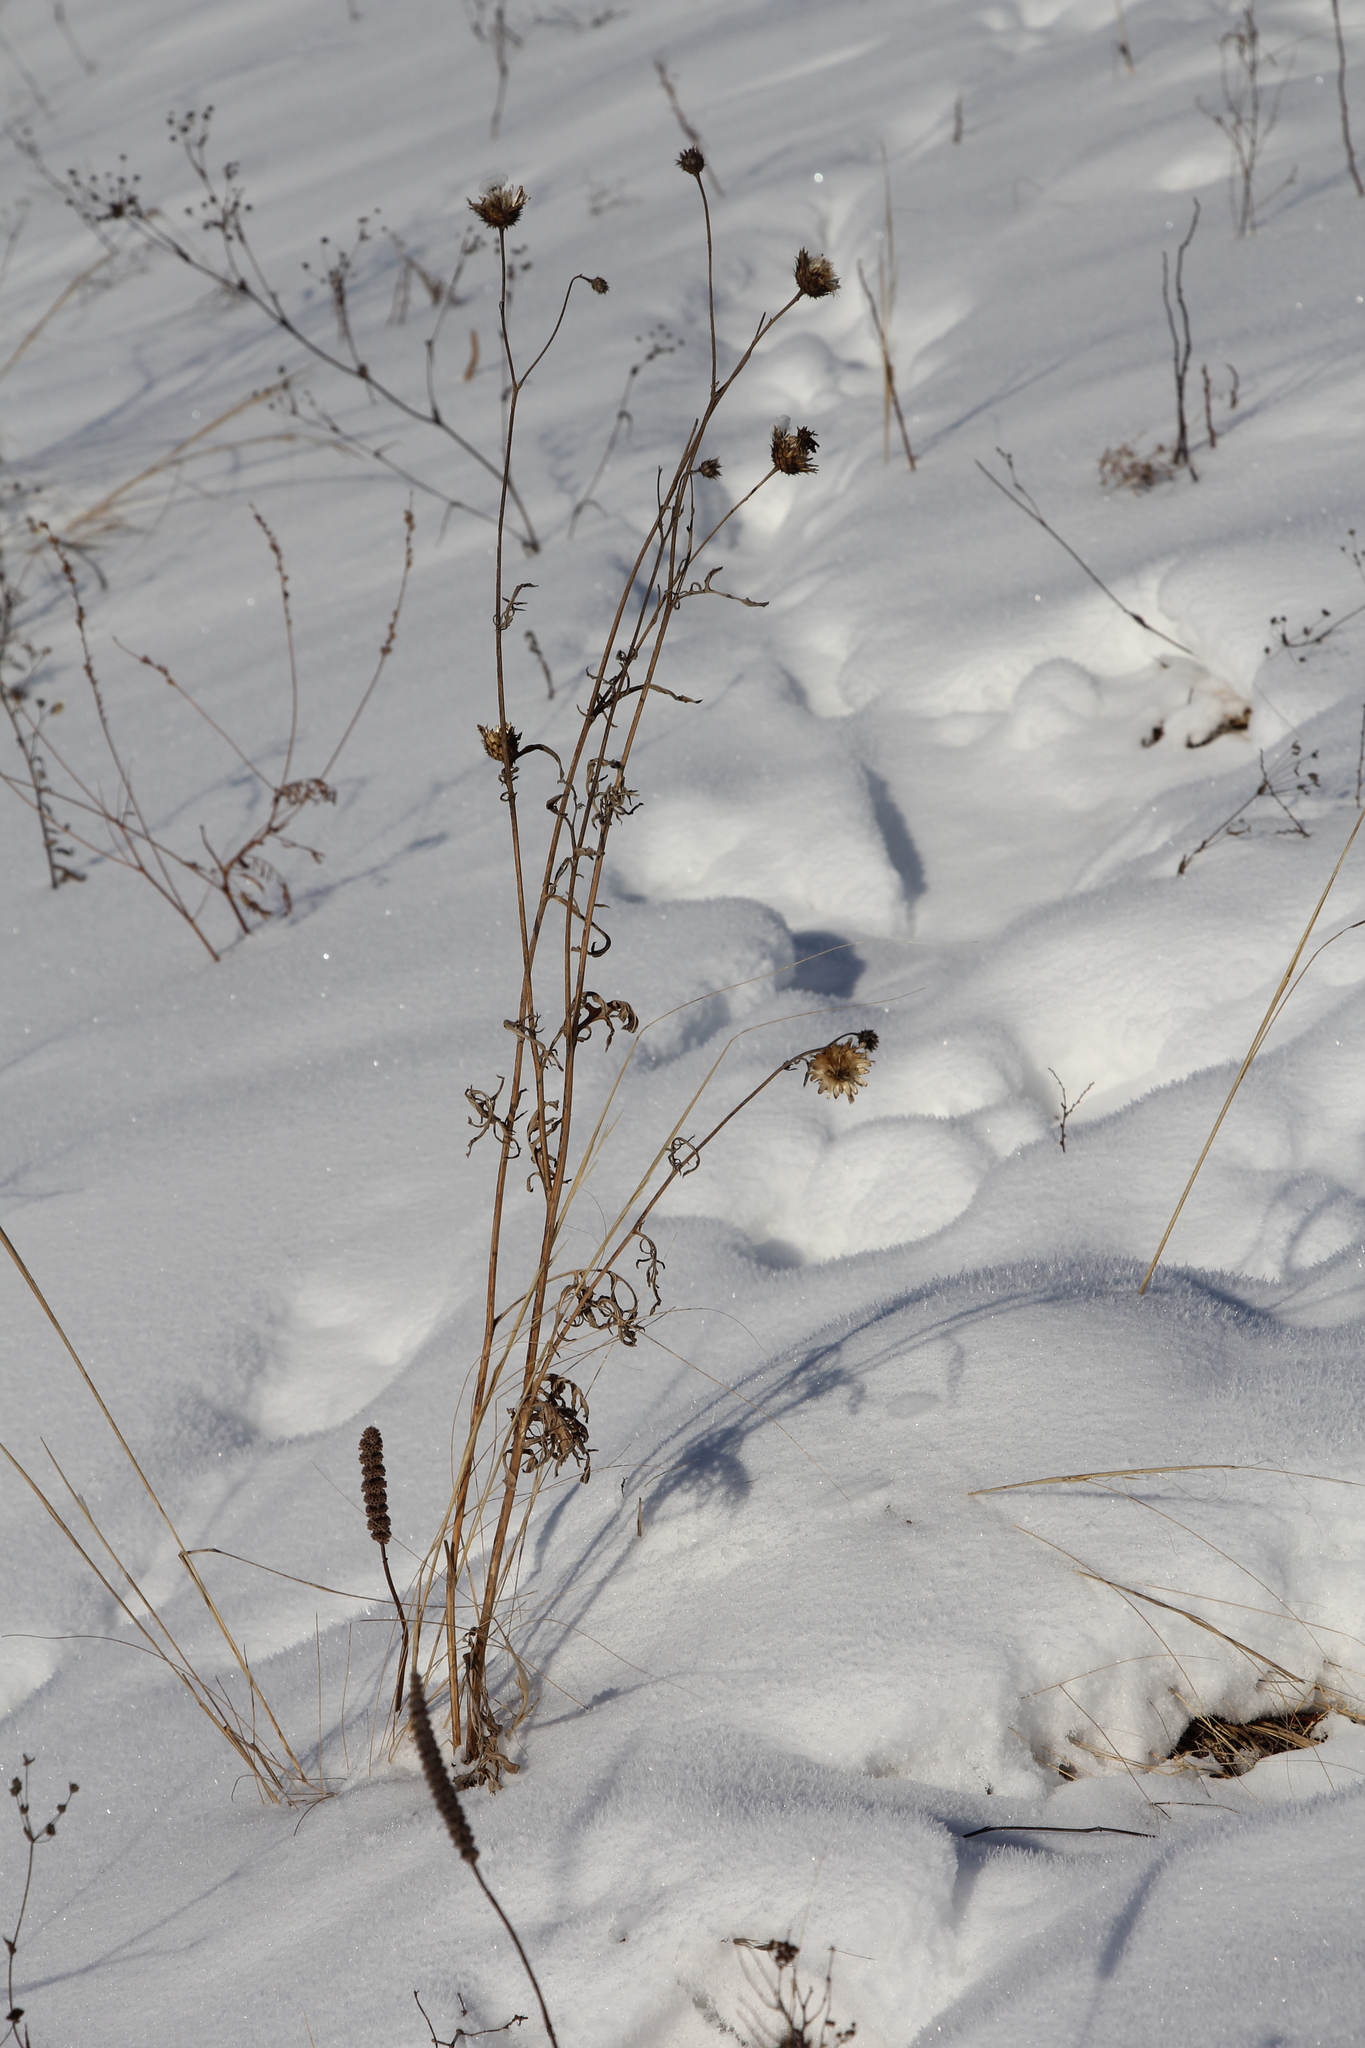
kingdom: Plantae
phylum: Tracheophyta
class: Magnoliopsida
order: Asterales
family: Asteraceae
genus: Centaurea
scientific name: Centaurea scabiosa
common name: Greater knapweed
